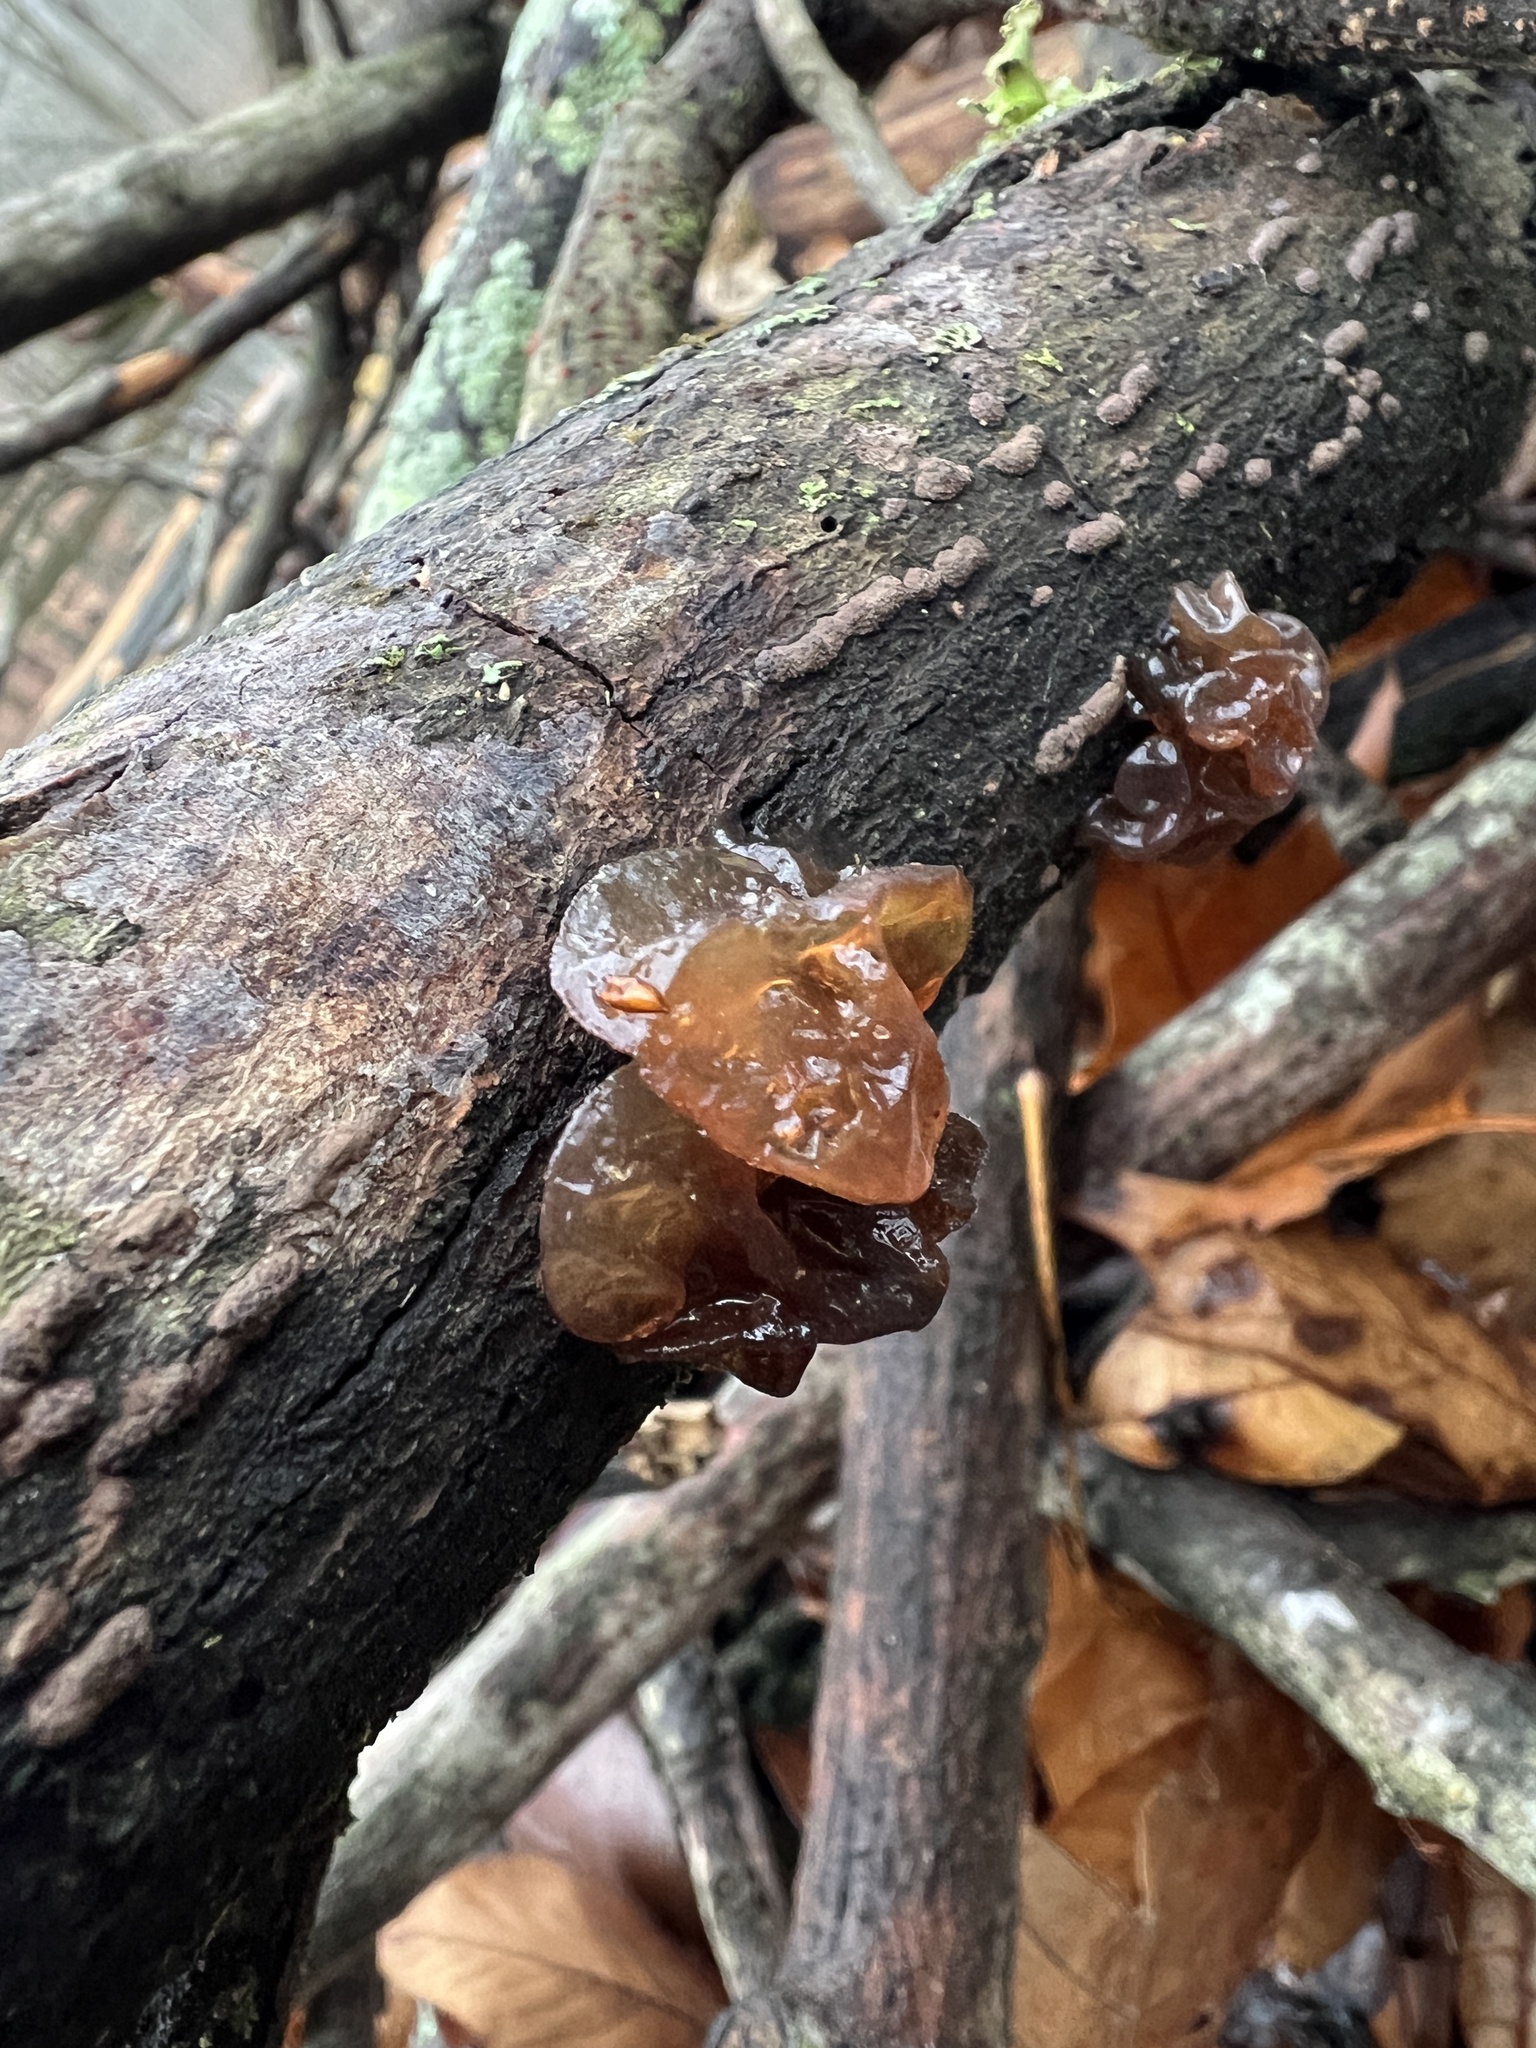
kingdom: Fungi
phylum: Basidiomycota
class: Agaricomycetes
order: Auriculariales
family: Auriculariaceae
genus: Exidia
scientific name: Exidia
